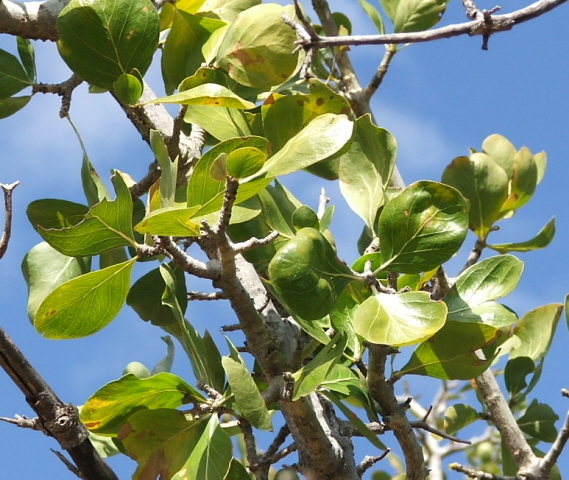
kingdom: Plantae
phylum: Tracheophyta
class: Magnoliopsida
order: Gentianales
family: Loganiaceae
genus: Strychnos
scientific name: Strychnos madagascariensis
